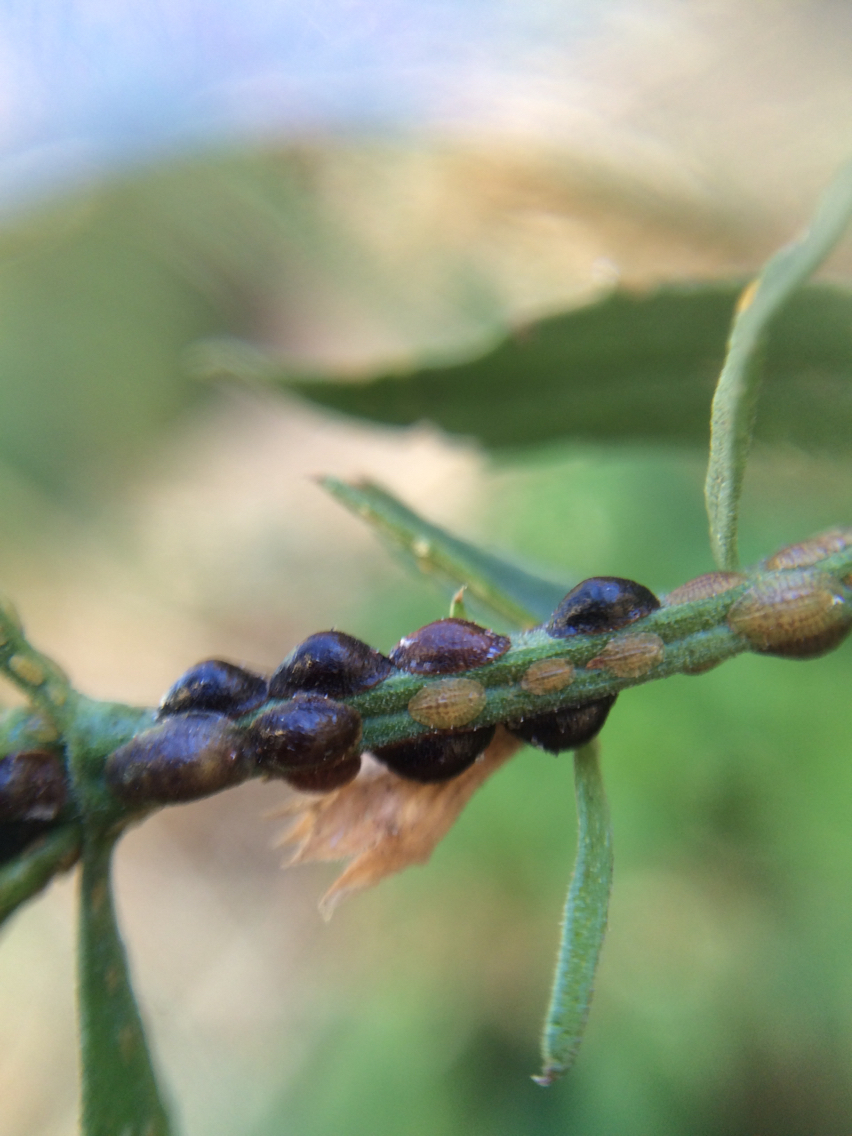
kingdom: Animalia
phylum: Arthropoda
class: Insecta
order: Hemiptera
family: Coccidae
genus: Parasaissetia
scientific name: Parasaissetia nigra
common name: Black scale
